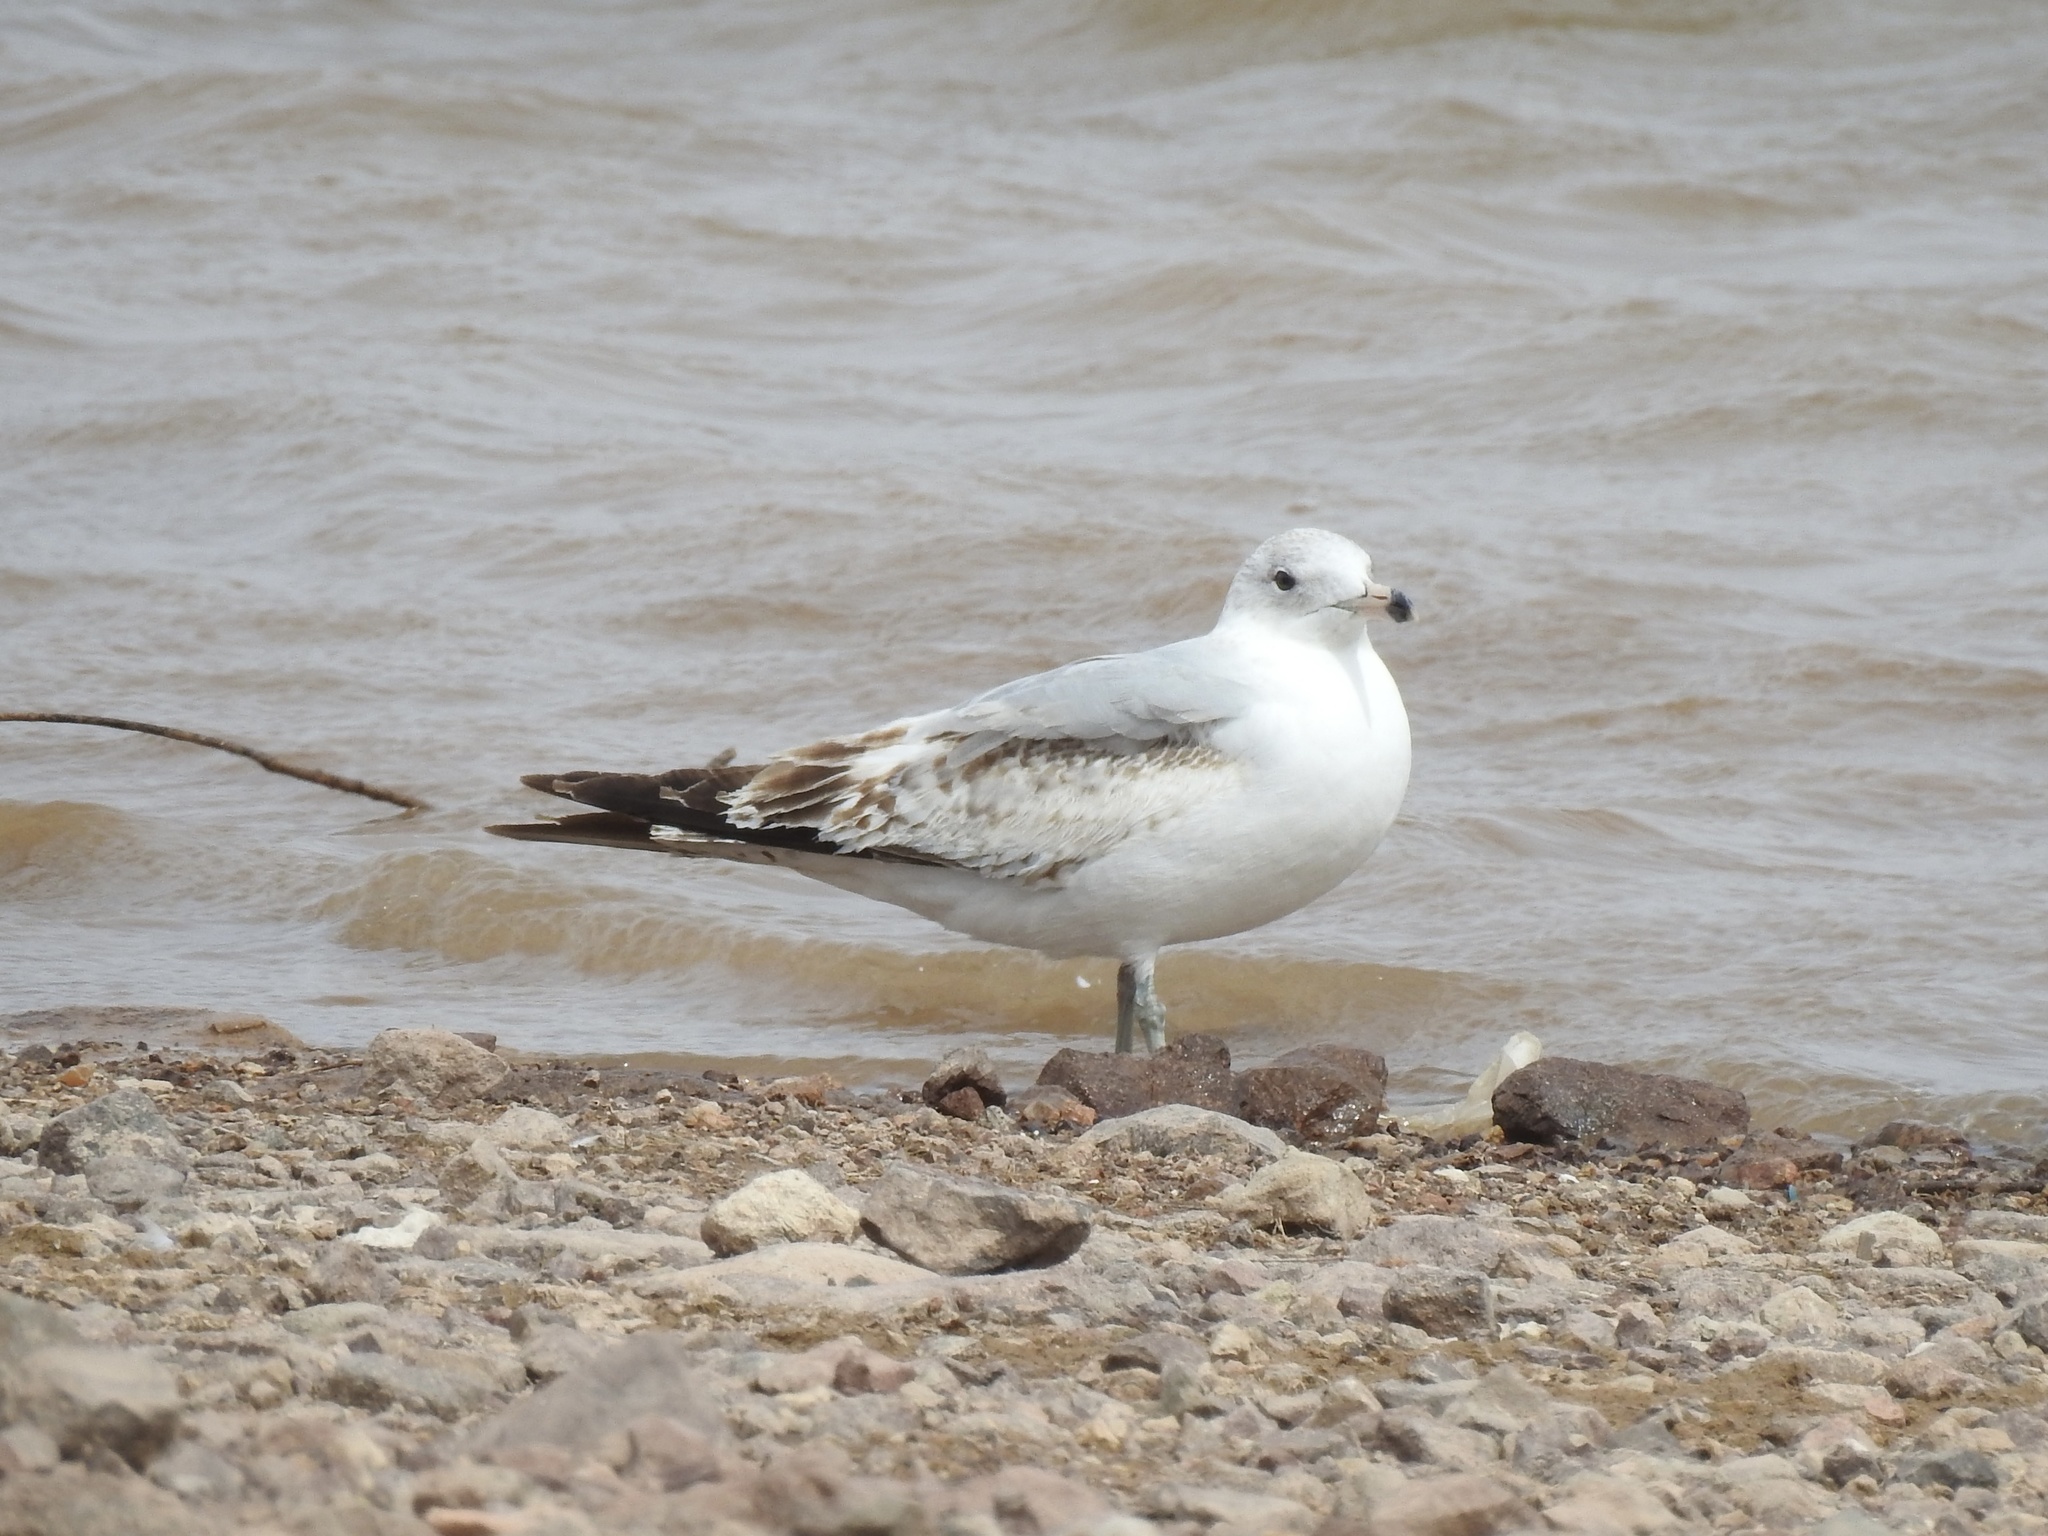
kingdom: Animalia
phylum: Chordata
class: Aves
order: Charadriiformes
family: Laridae
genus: Larus
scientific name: Larus delawarensis
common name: Ring-billed gull
